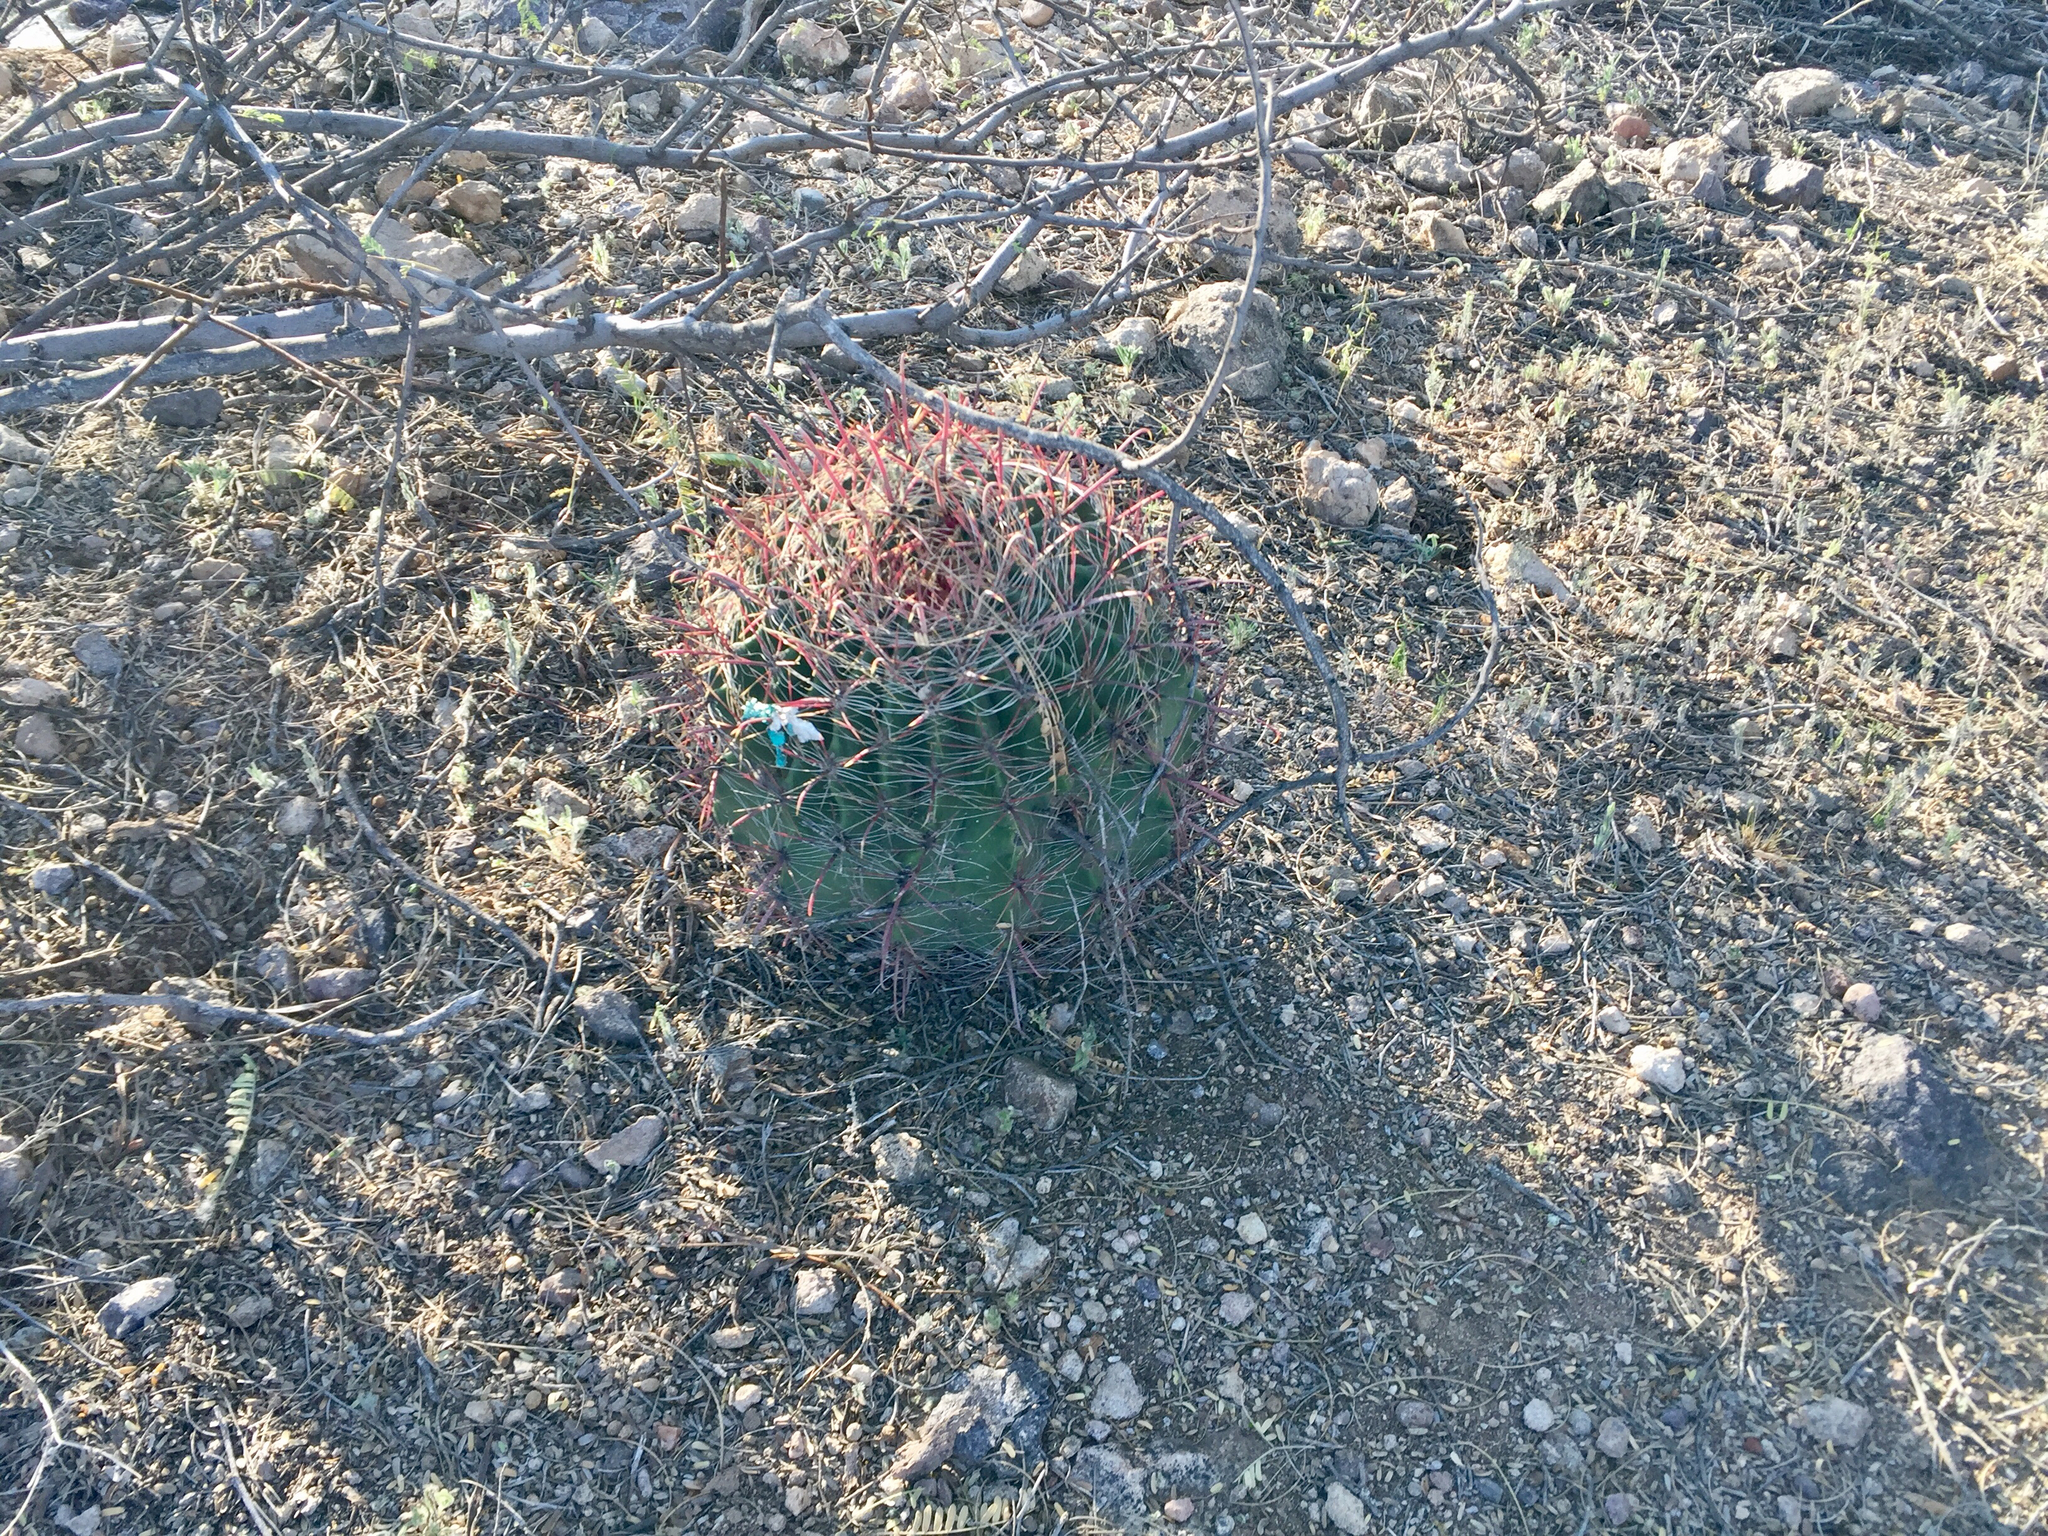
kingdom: Plantae
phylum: Tracheophyta
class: Magnoliopsida
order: Caryophyllales
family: Cactaceae
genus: Ferocactus
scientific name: Ferocactus wislizeni
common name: Candy barrel cactus
